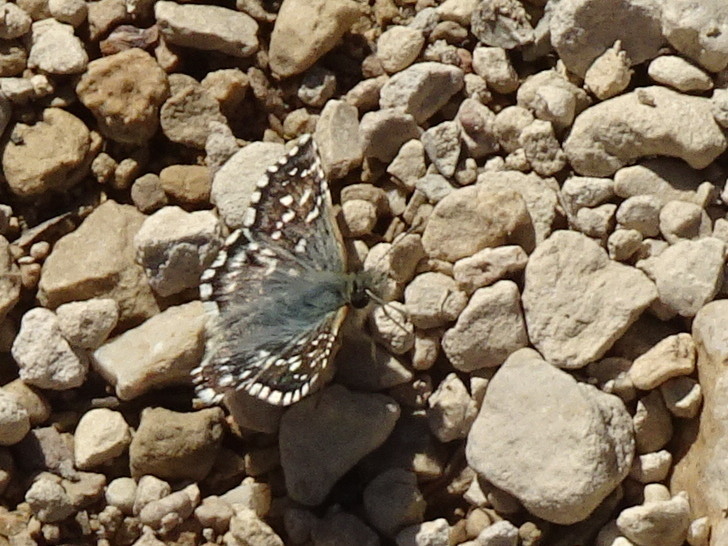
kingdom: Animalia
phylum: Arthropoda
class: Insecta
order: Lepidoptera
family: Hesperiidae
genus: Pyrgus
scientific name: Pyrgus malvoides
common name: Southern grizzled skipper
